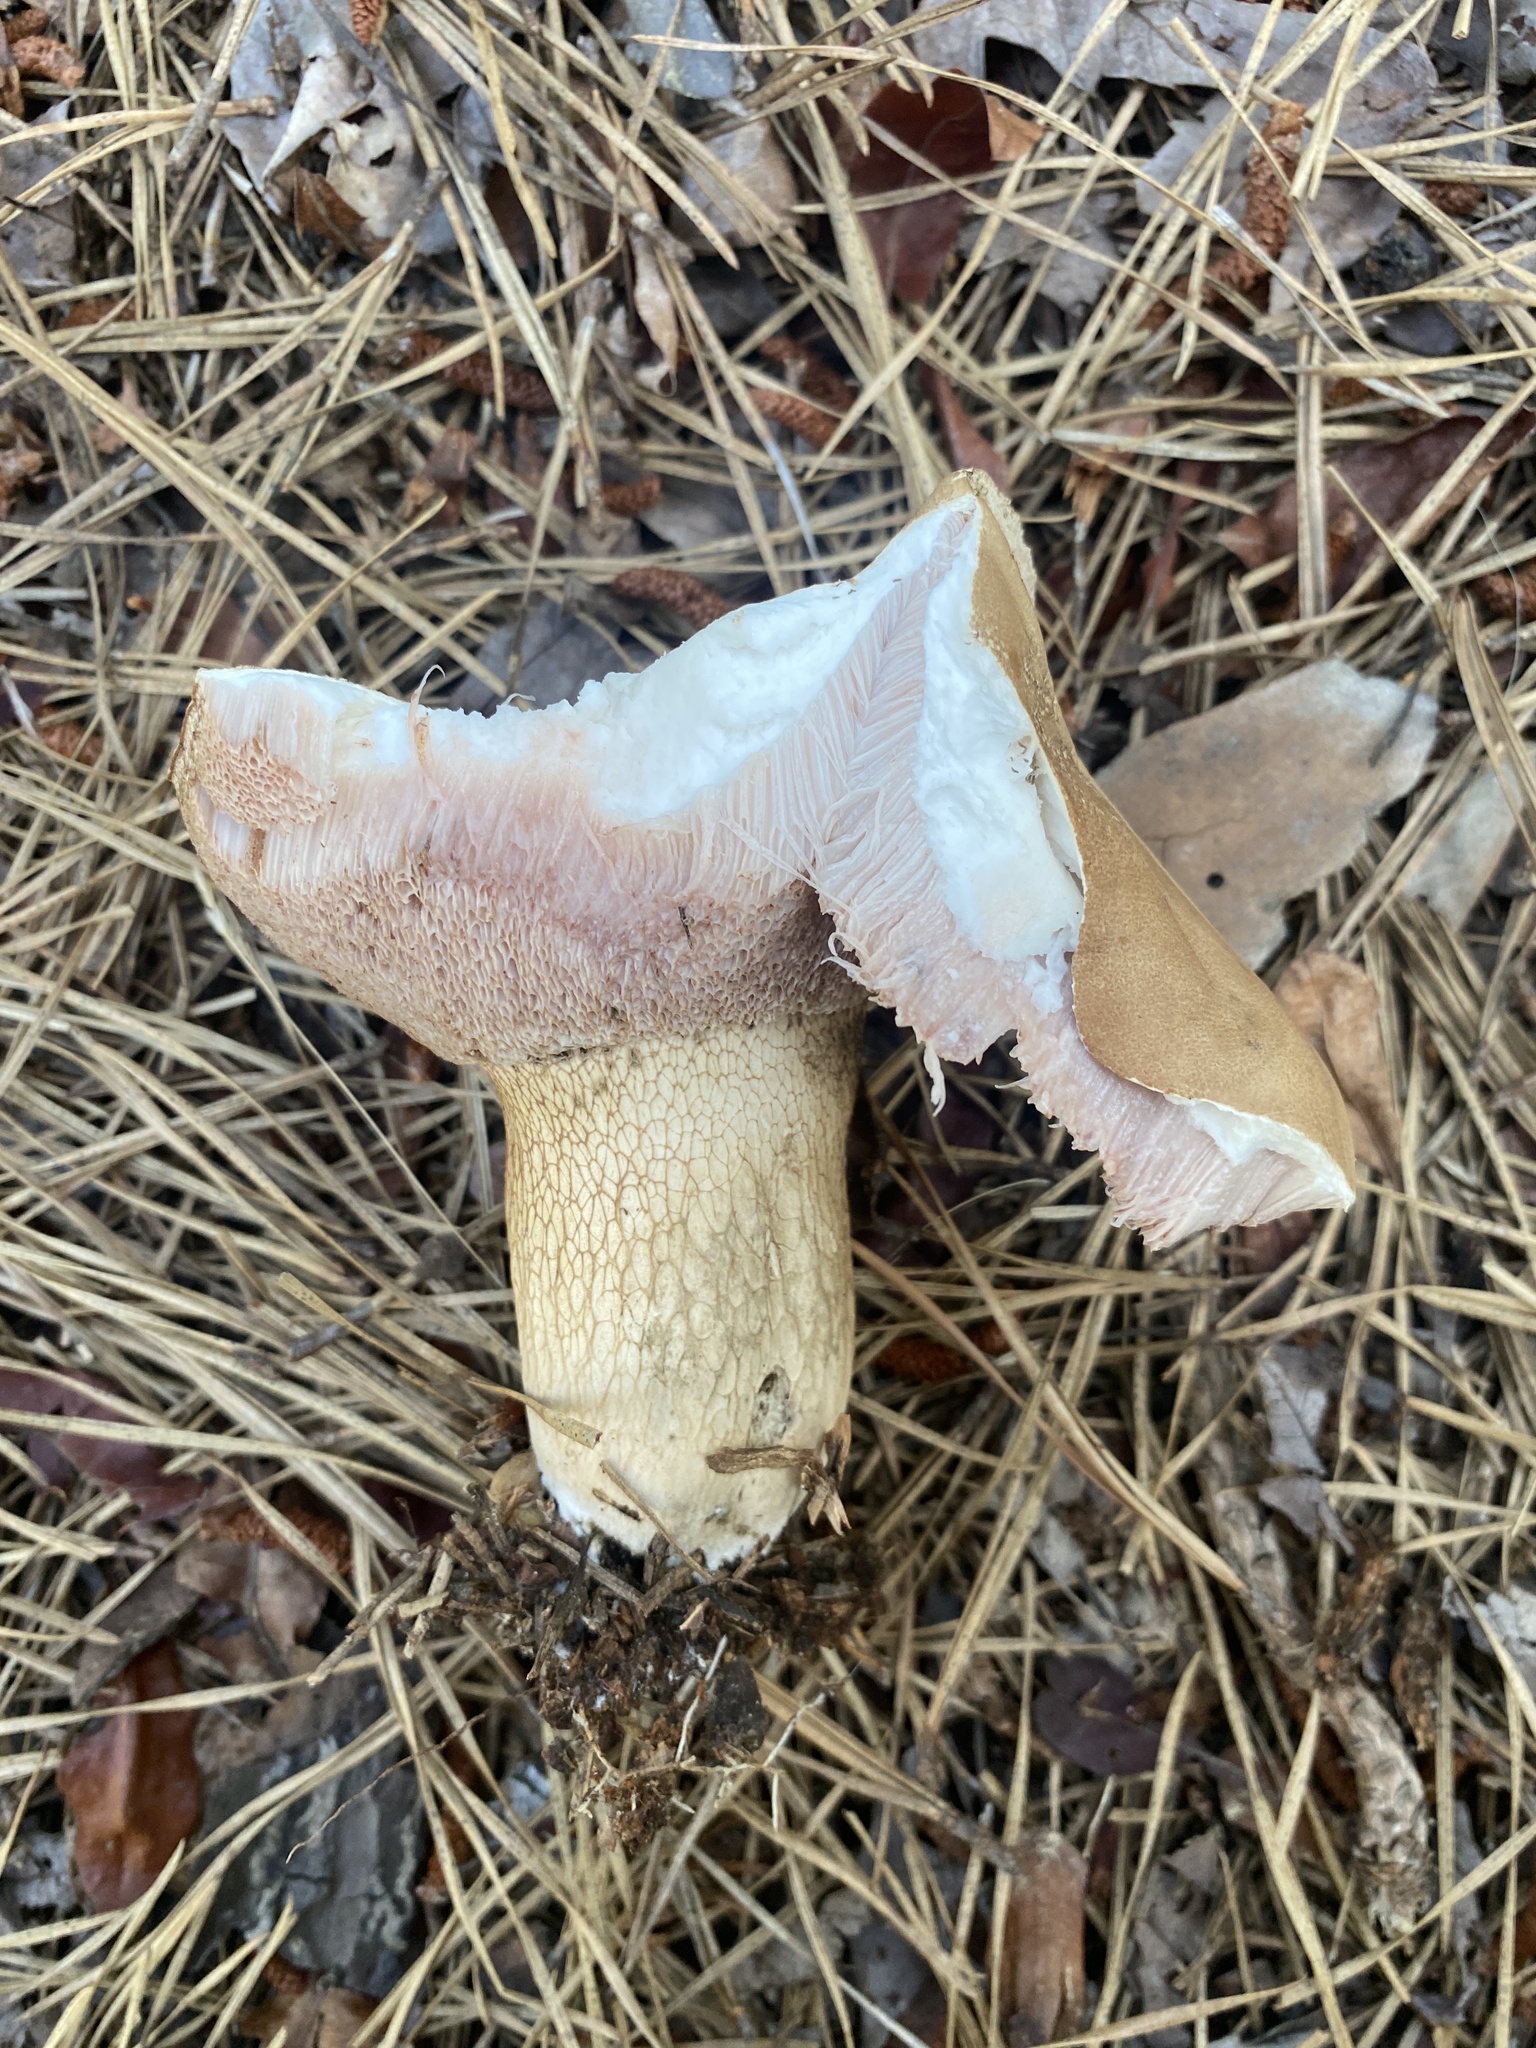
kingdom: Fungi
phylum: Basidiomycota
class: Agaricomycetes
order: Boletales
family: Boletaceae
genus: Tylopilus
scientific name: Tylopilus felleus
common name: Bitter bolete
